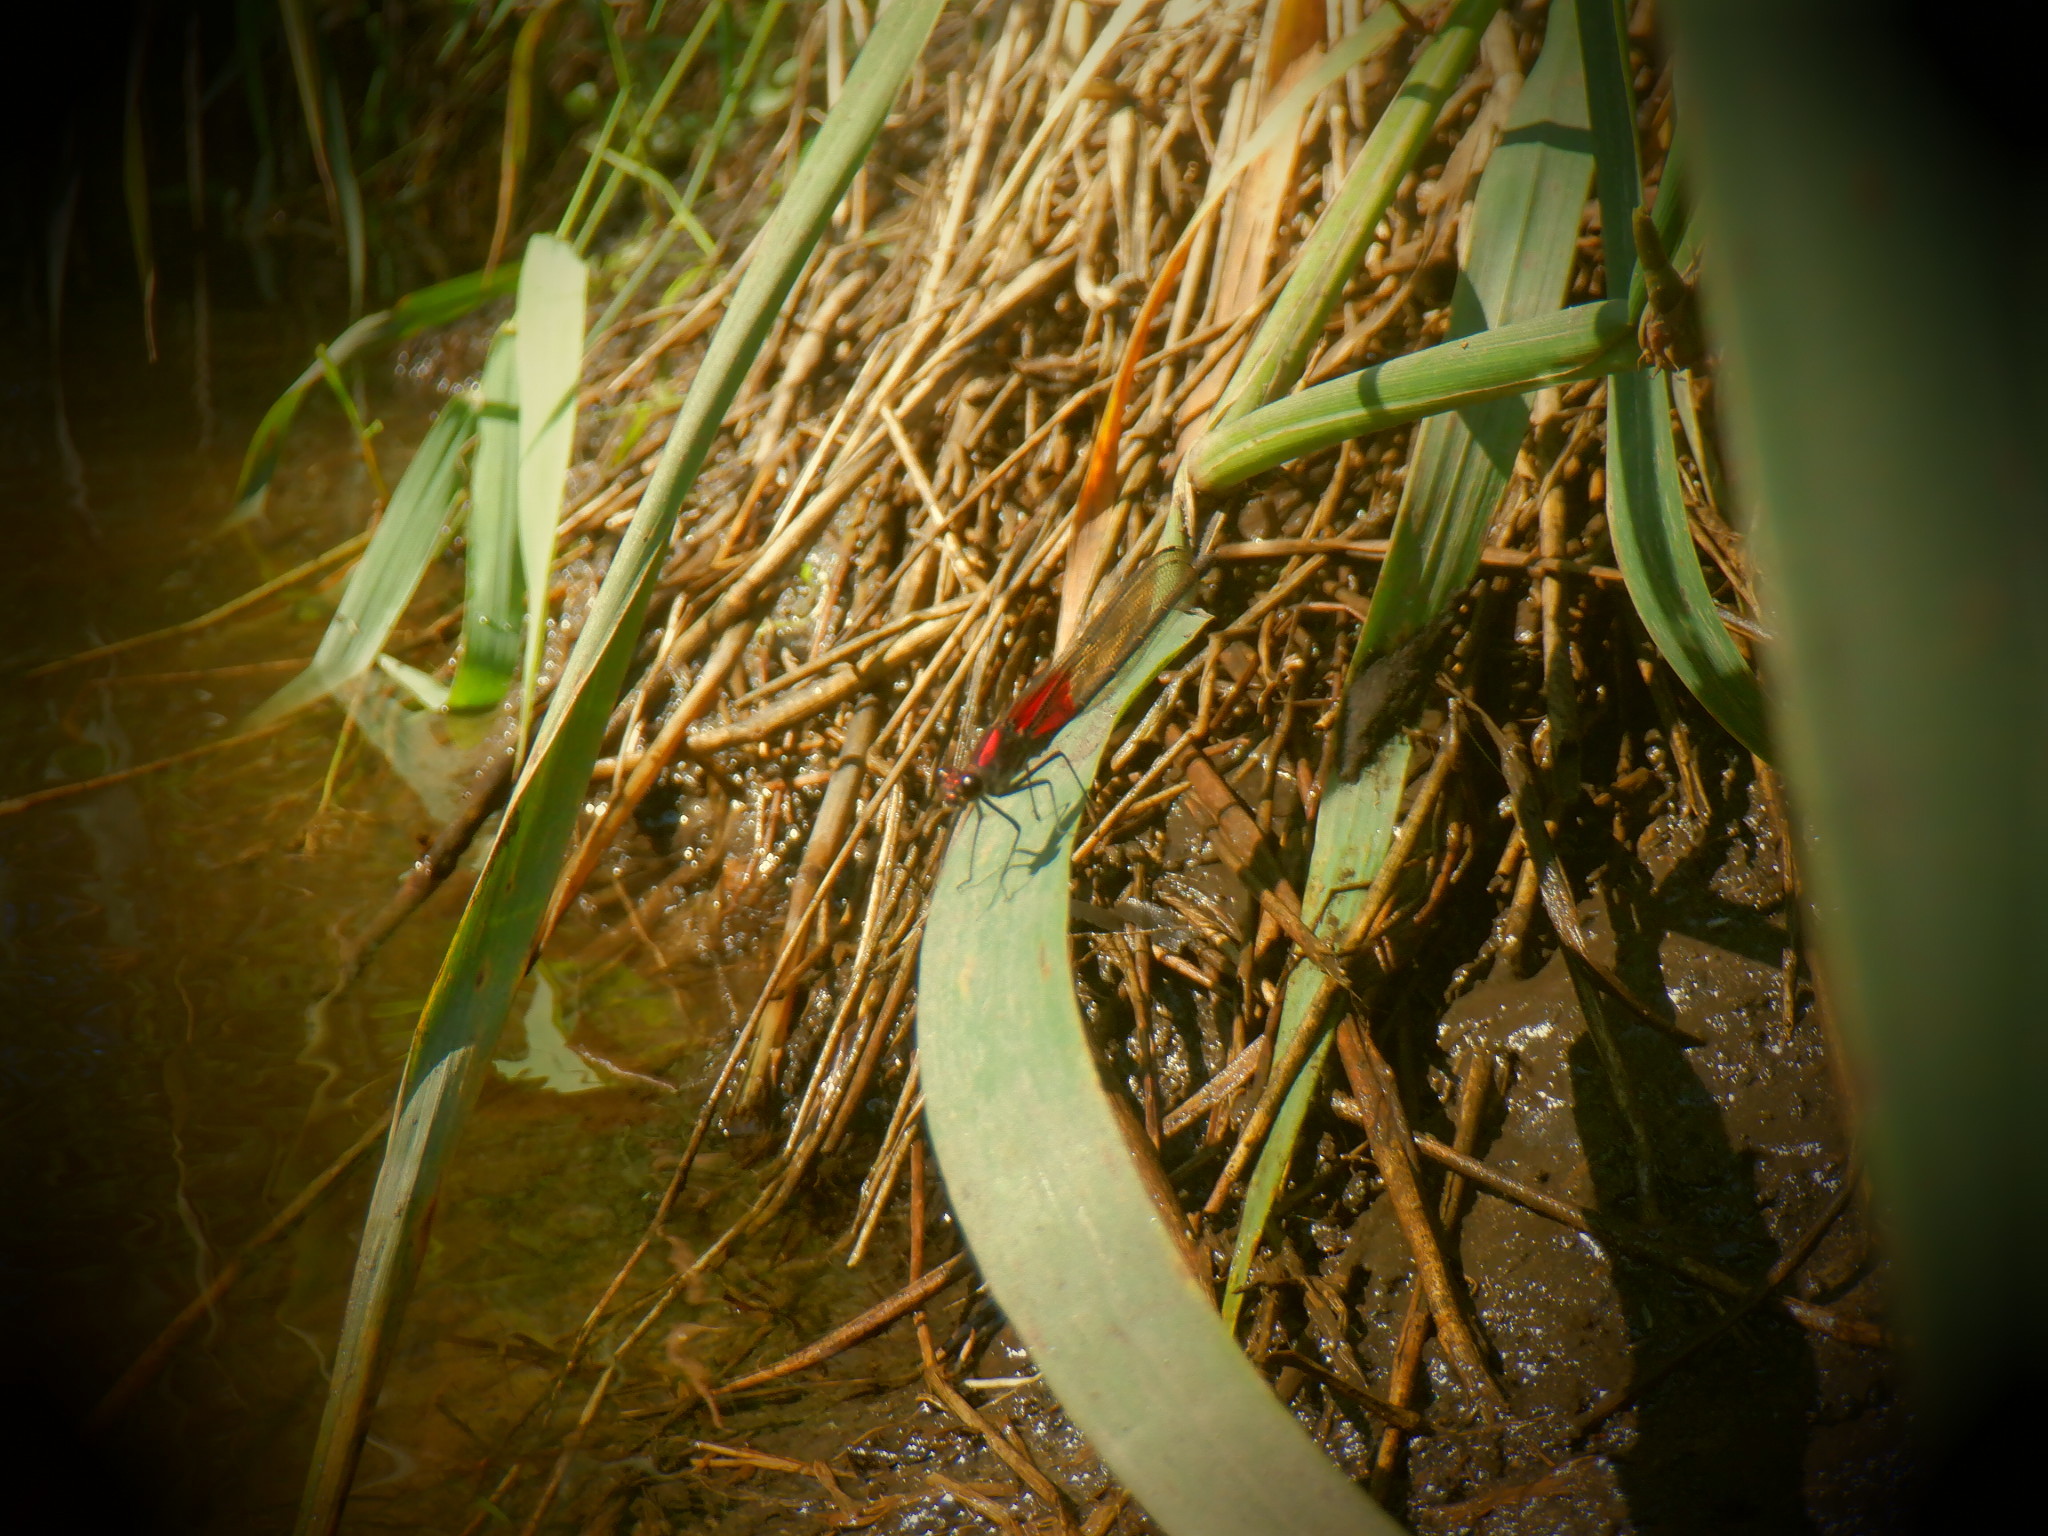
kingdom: Animalia
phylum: Arthropoda
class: Insecta
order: Odonata
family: Calopterygidae
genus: Hetaerina
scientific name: Hetaerina americana
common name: American rubyspot
